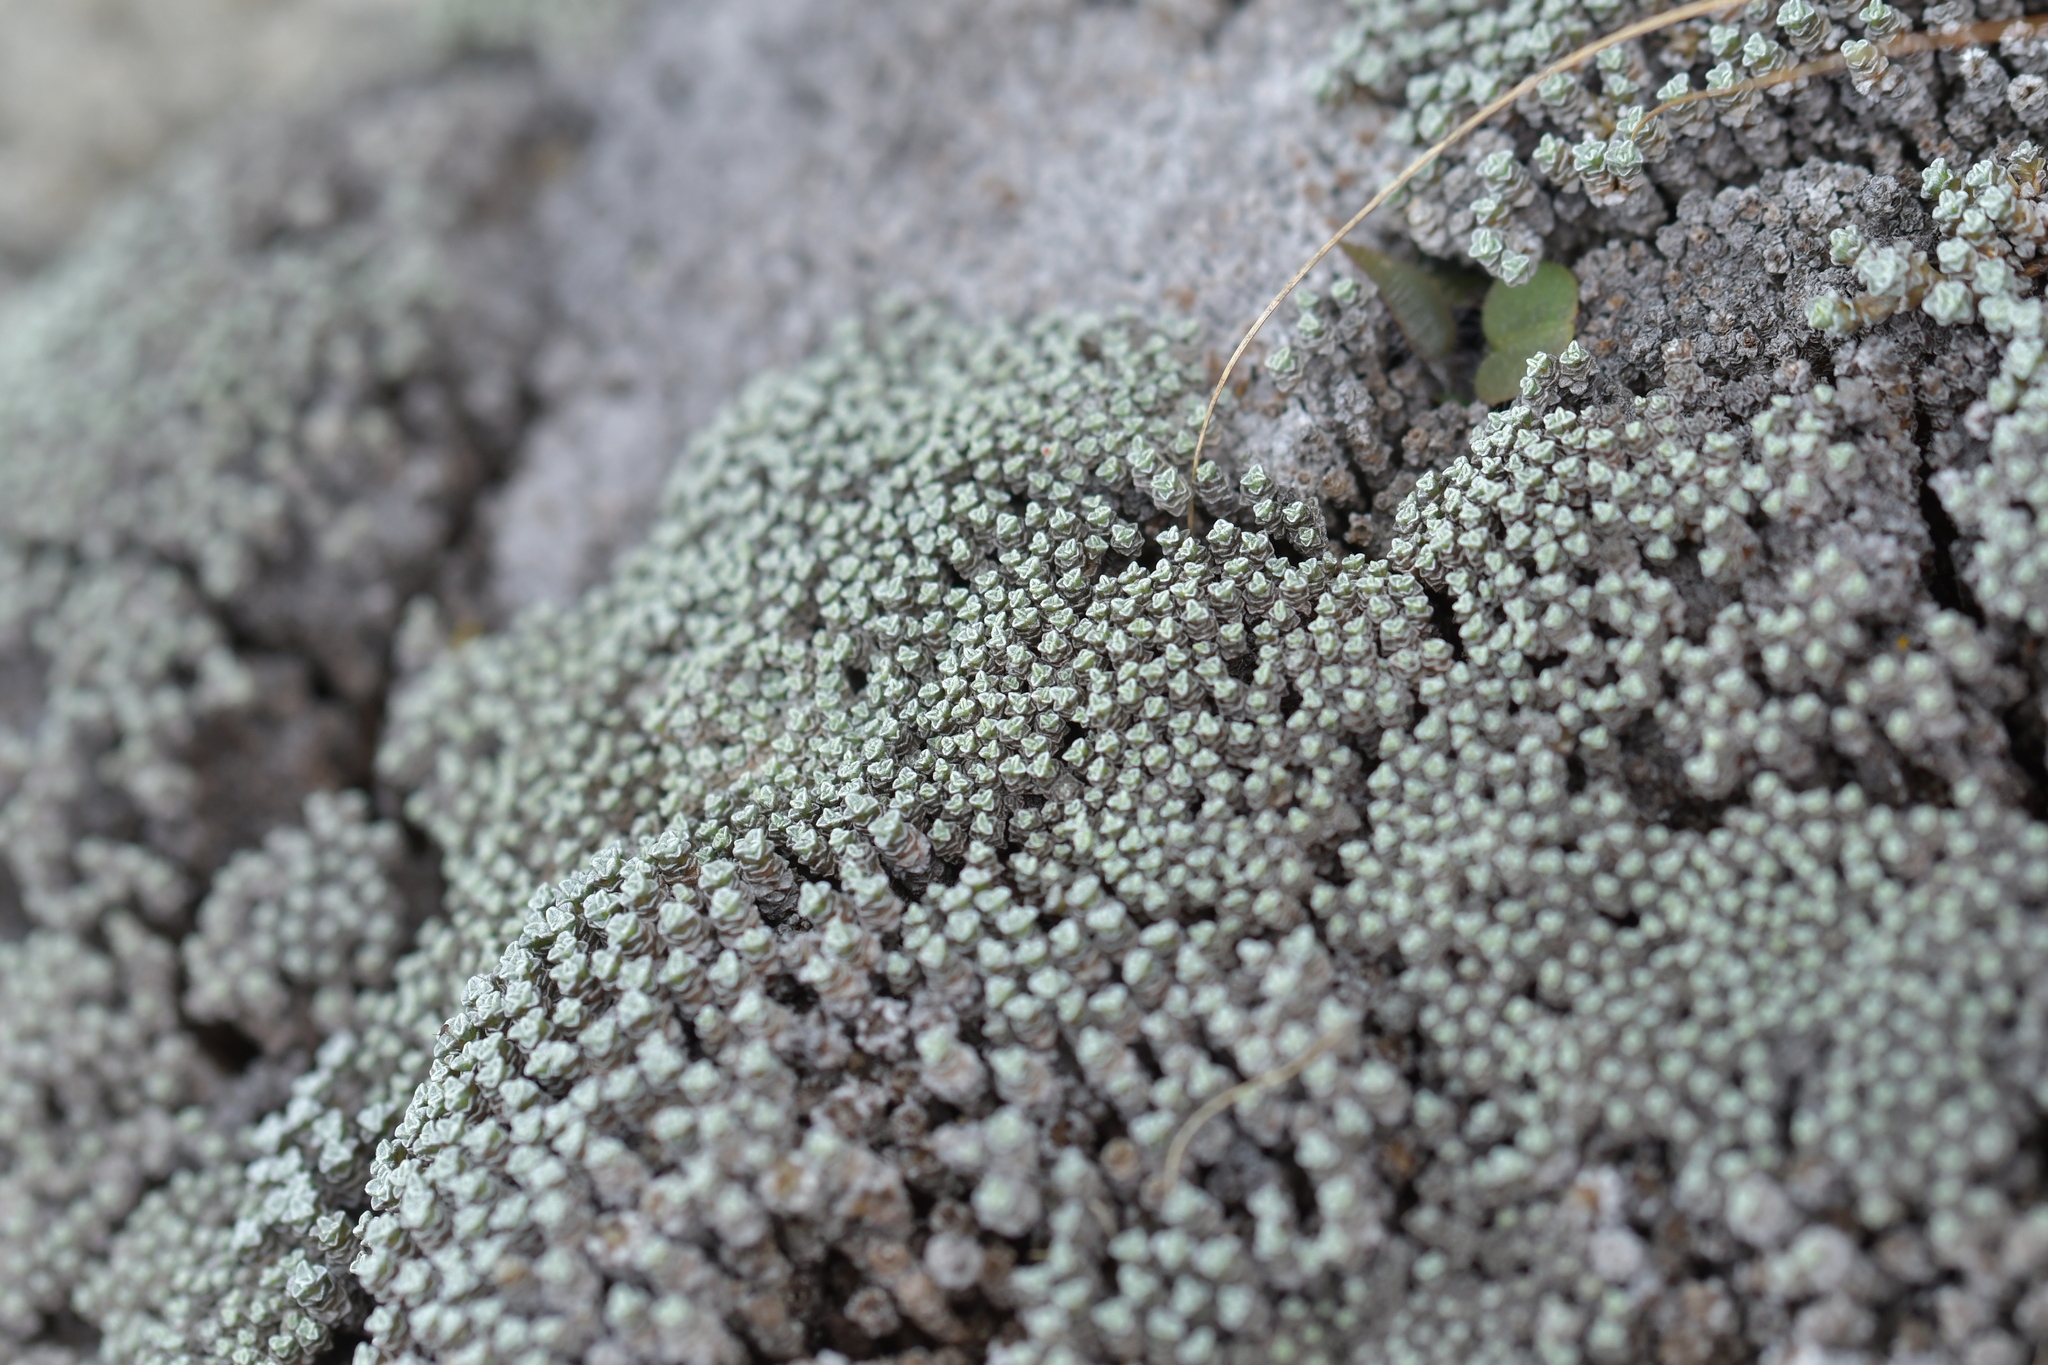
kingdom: Plantae
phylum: Tracheophyta
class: Magnoliopsida
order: Asterales
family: Asteraceae
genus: Raoulia
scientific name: Raoulia australis
